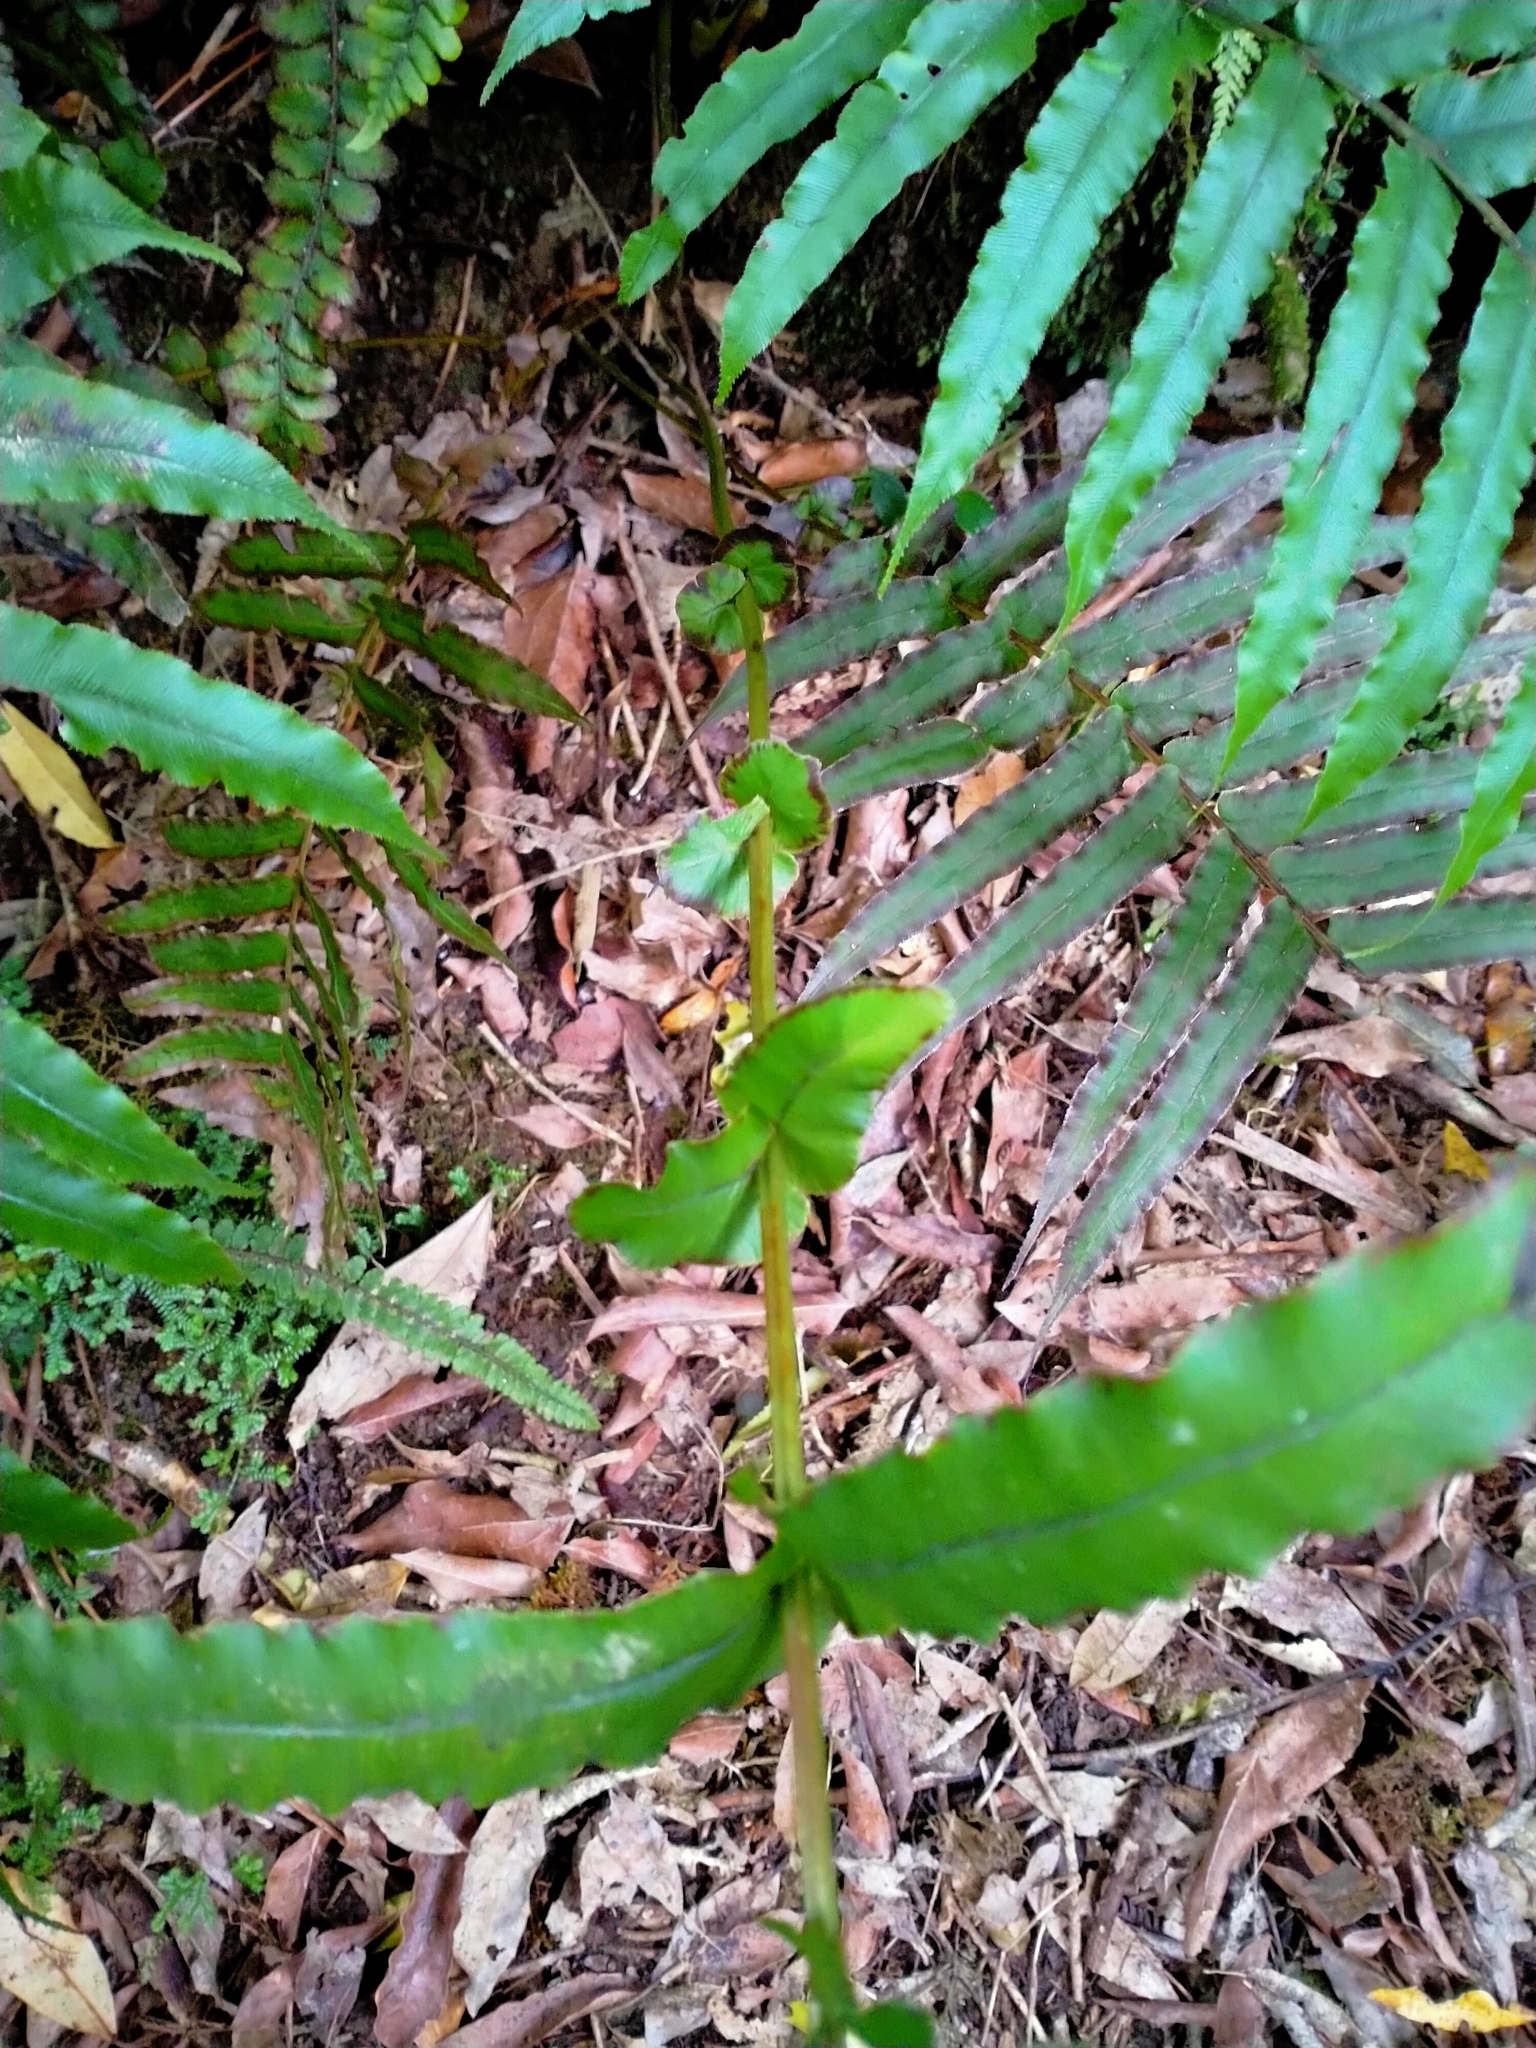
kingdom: Plantae
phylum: Tracheophyta
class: Polypodiopsida
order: Polypodiales
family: Blechnaceae
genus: Parablechnum
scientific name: Parablechnum novae-zelandiae
